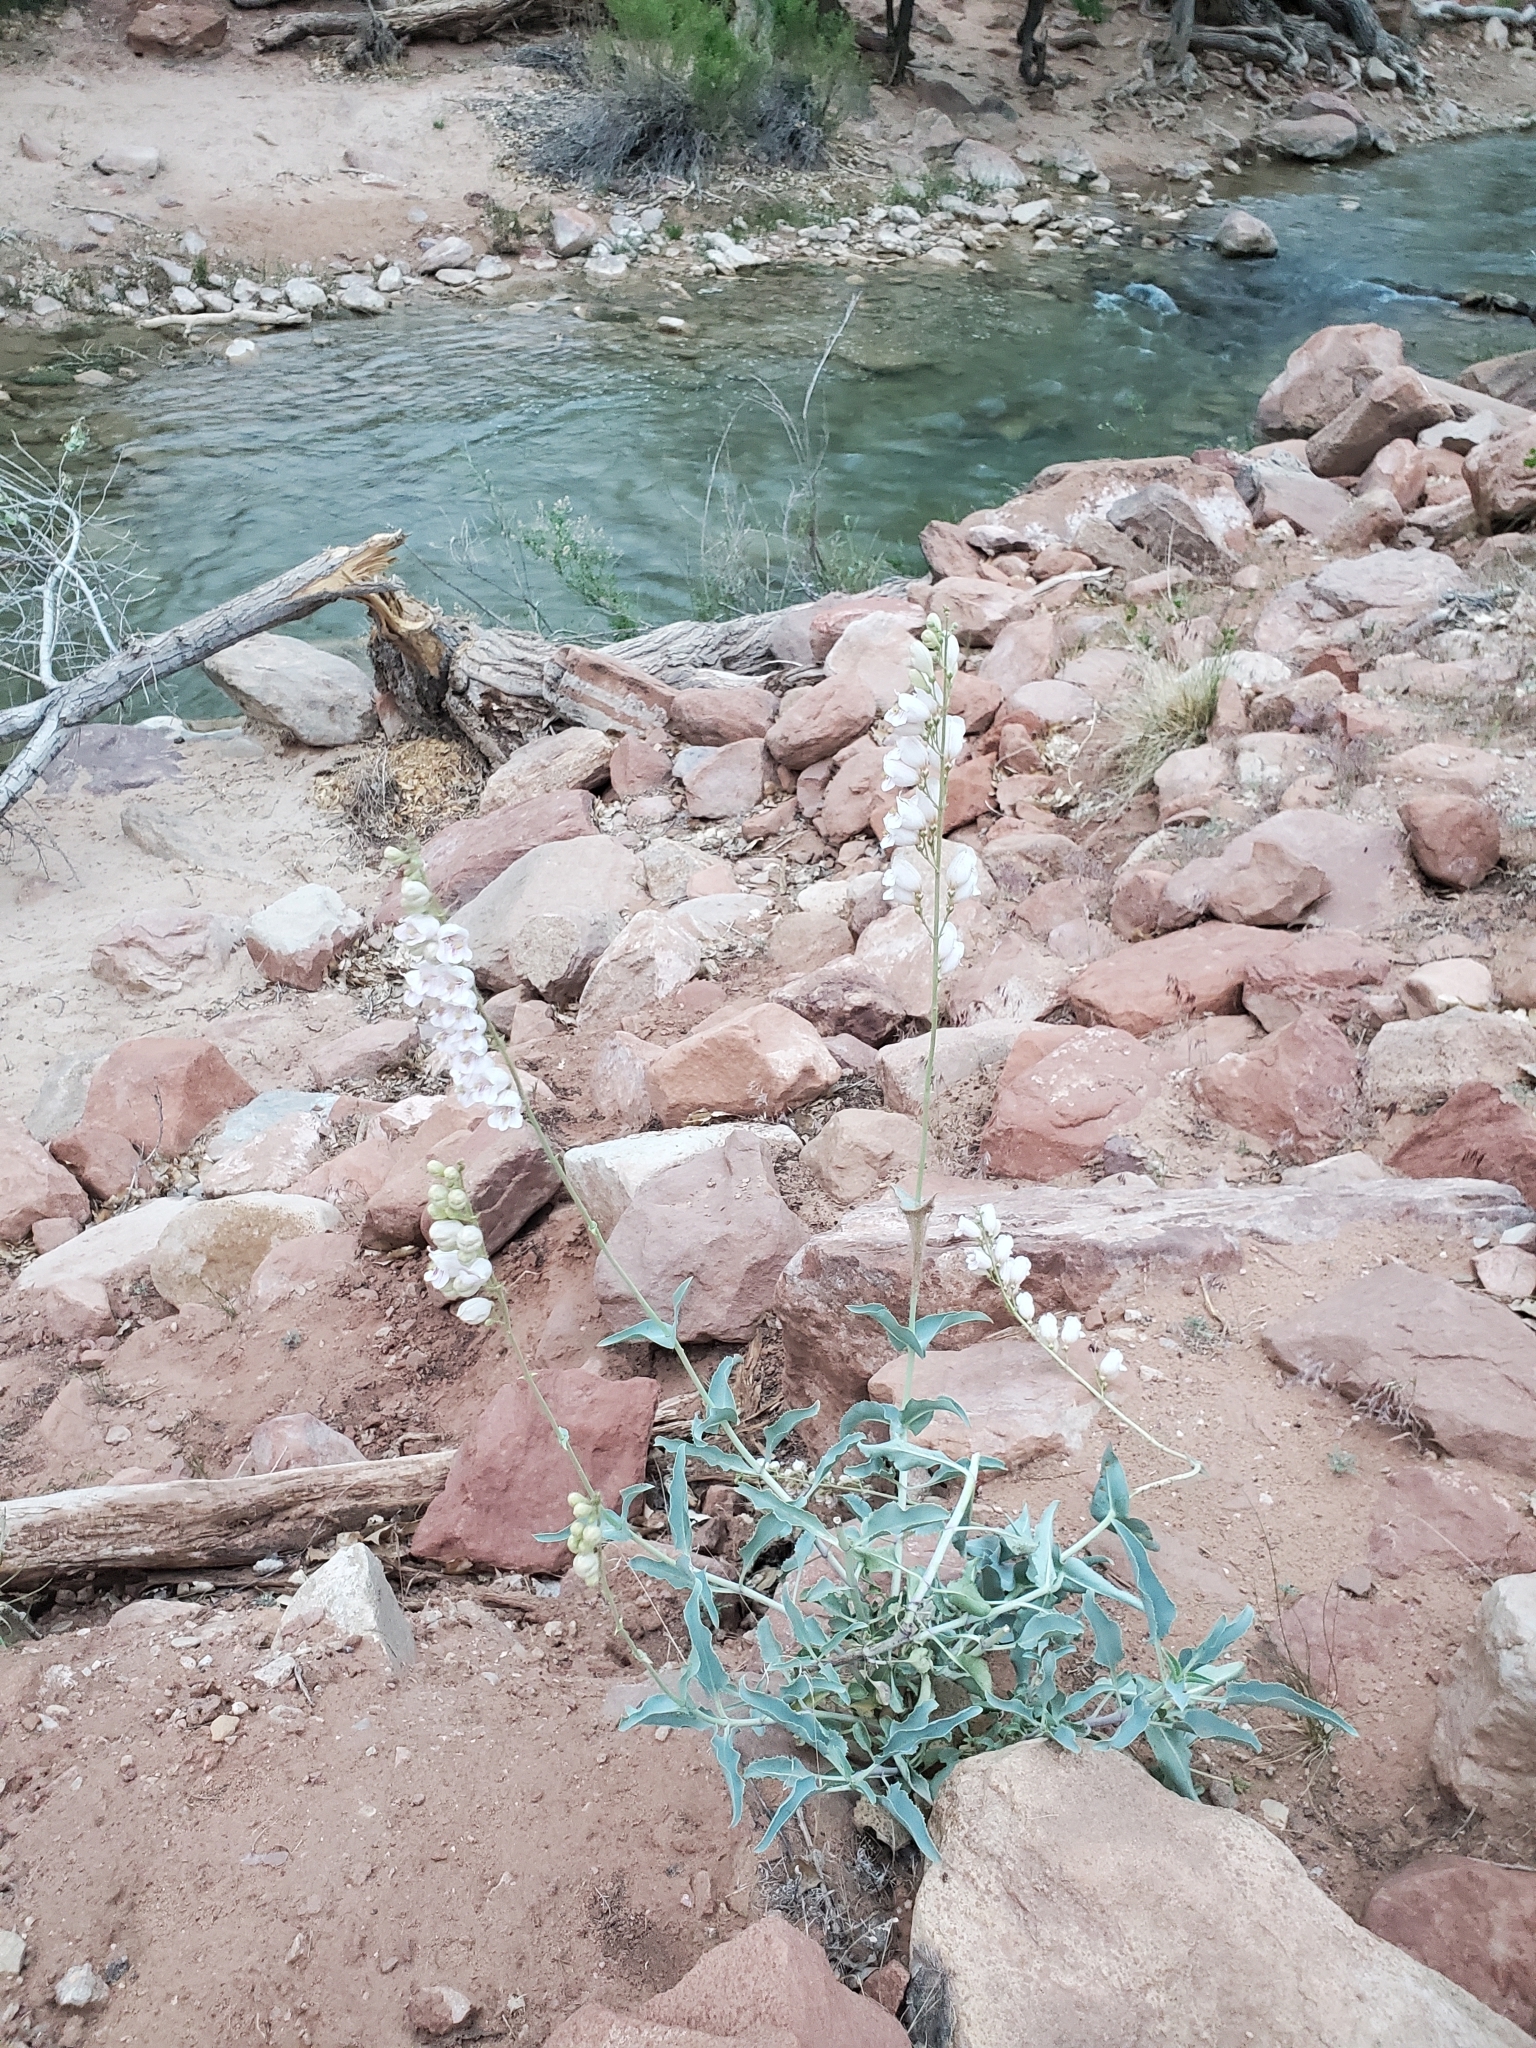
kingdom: Plantae
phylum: Tracheophyta
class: Magnoliopsida
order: Lamiales
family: Plantaginaceae
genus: Penstemon
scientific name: Penstemon palmeri
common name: Palmer penstemon
